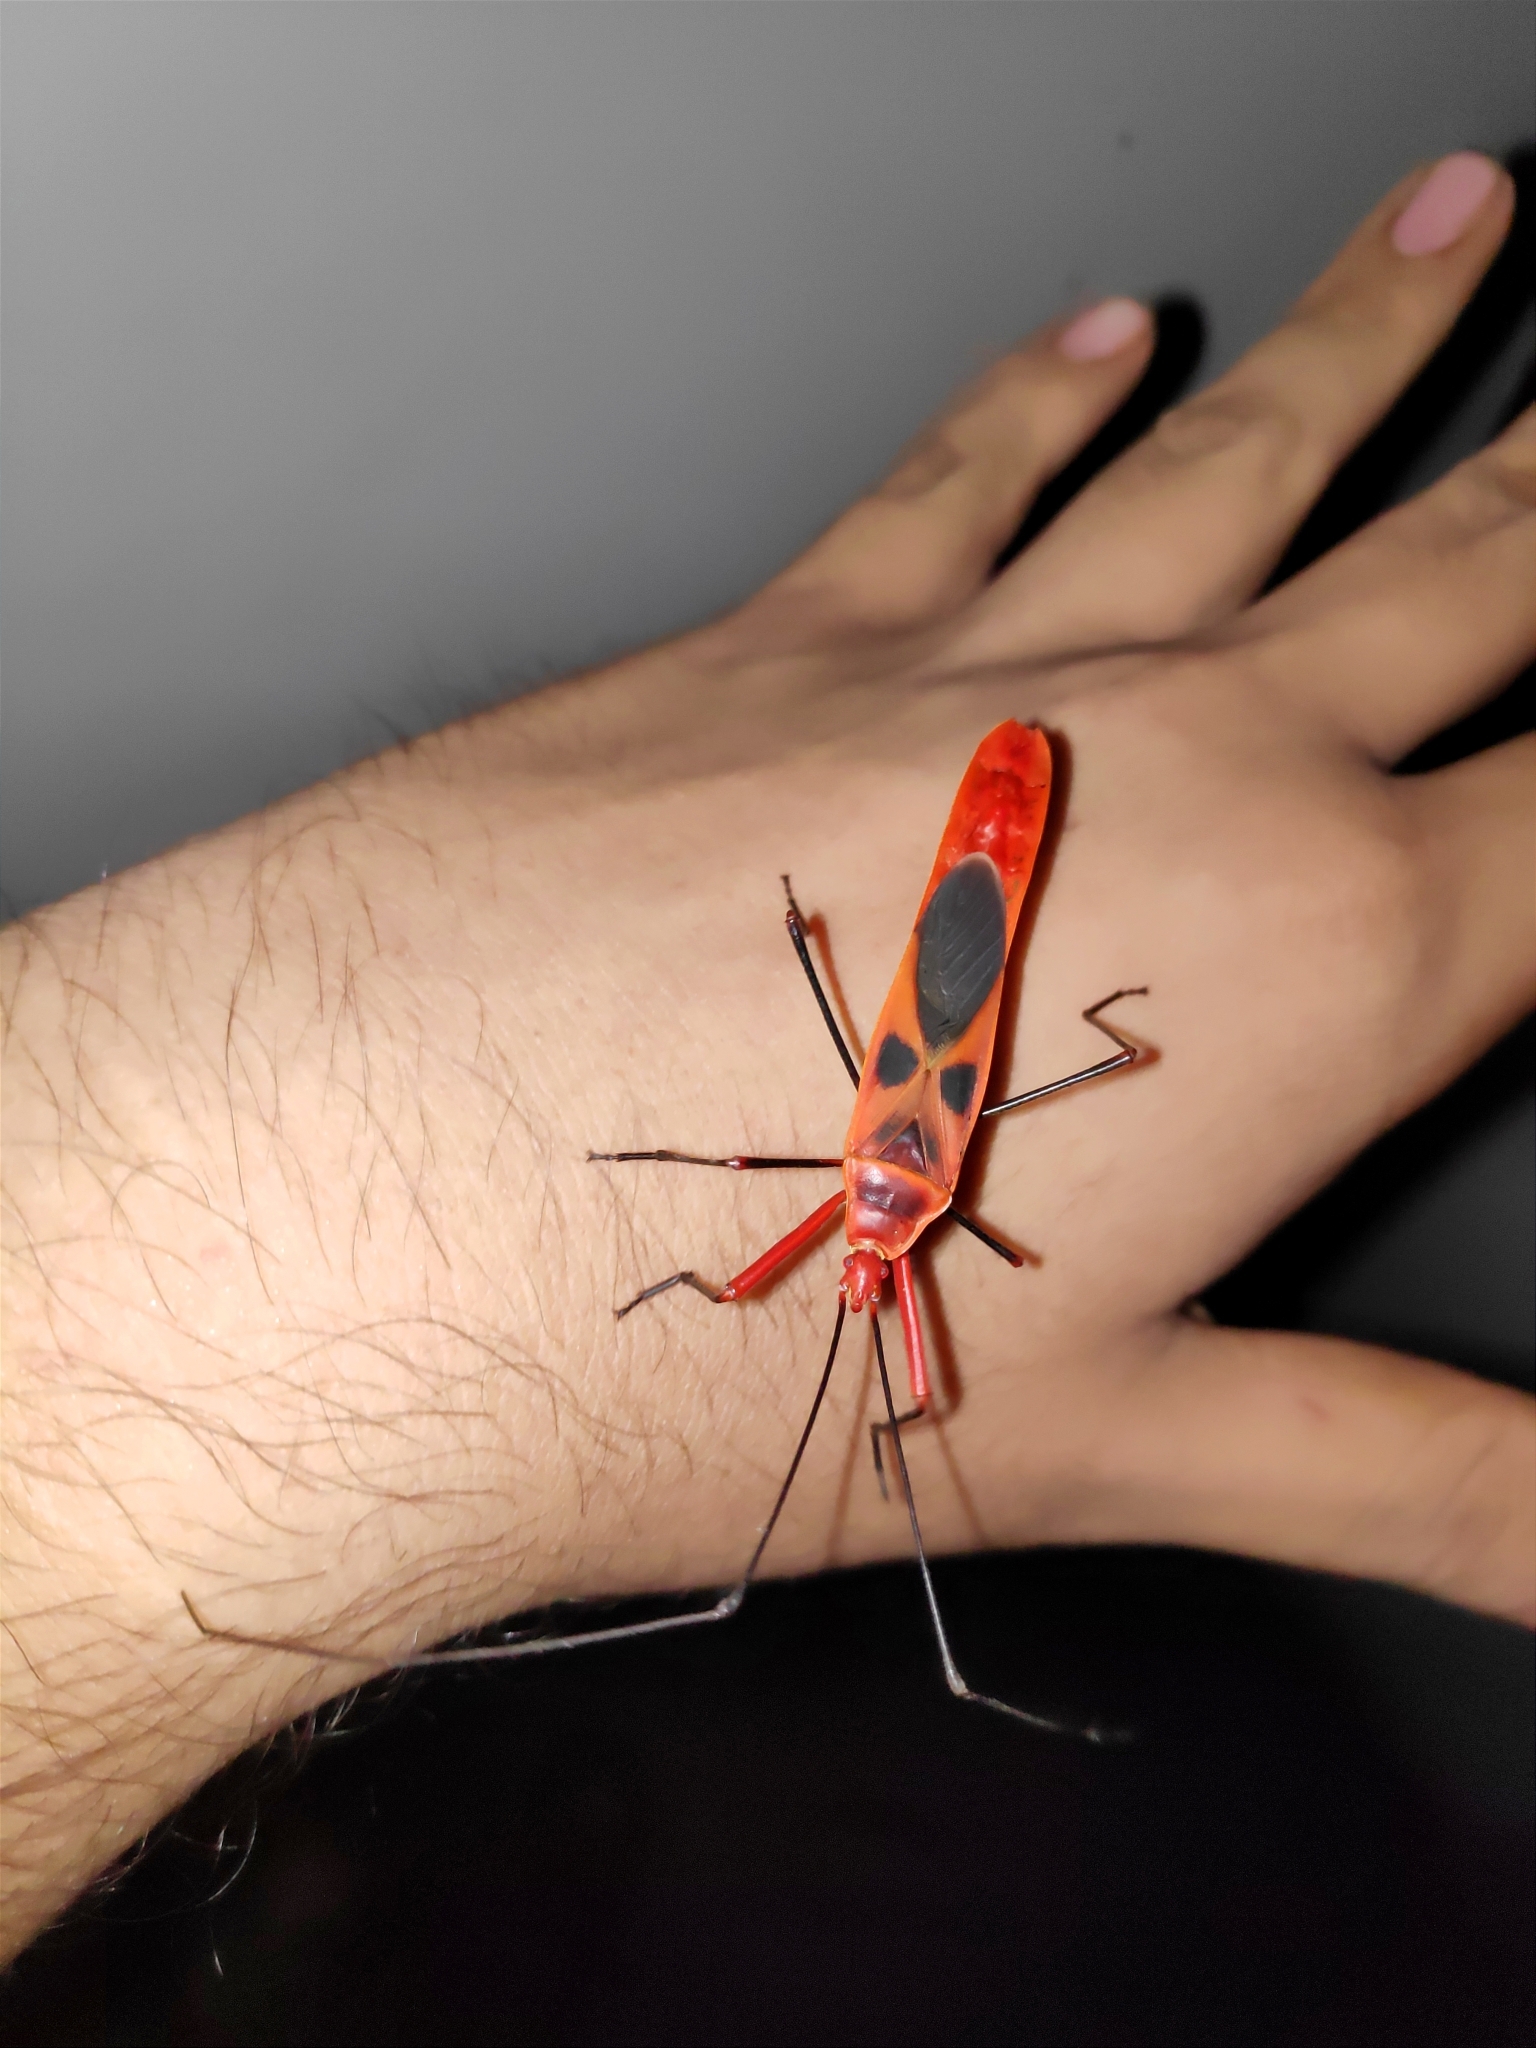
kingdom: Animalia
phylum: Arthropoda
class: Insecta
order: Hemiptera
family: Largidae
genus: Macrocheraia
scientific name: Macrocheraia grandis
